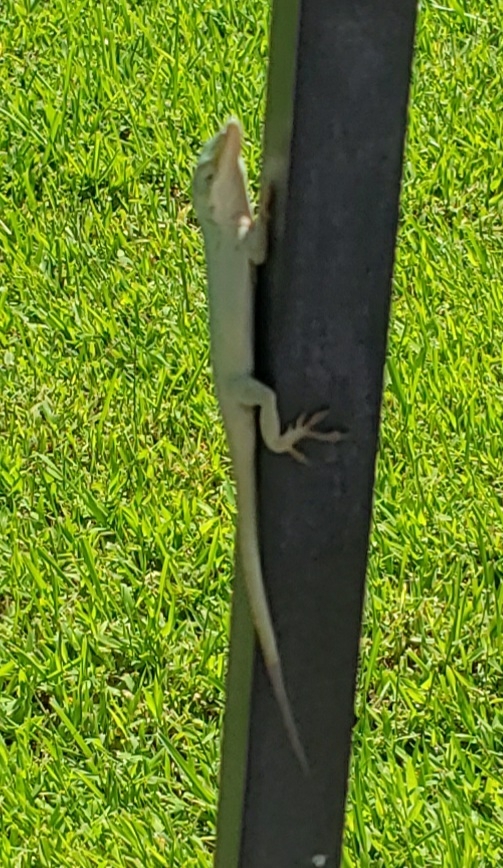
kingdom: Animalia
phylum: Chordata
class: Squamata
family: Dactyloidae
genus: Anolis
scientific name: Anolis carolinensis
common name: Green anole
